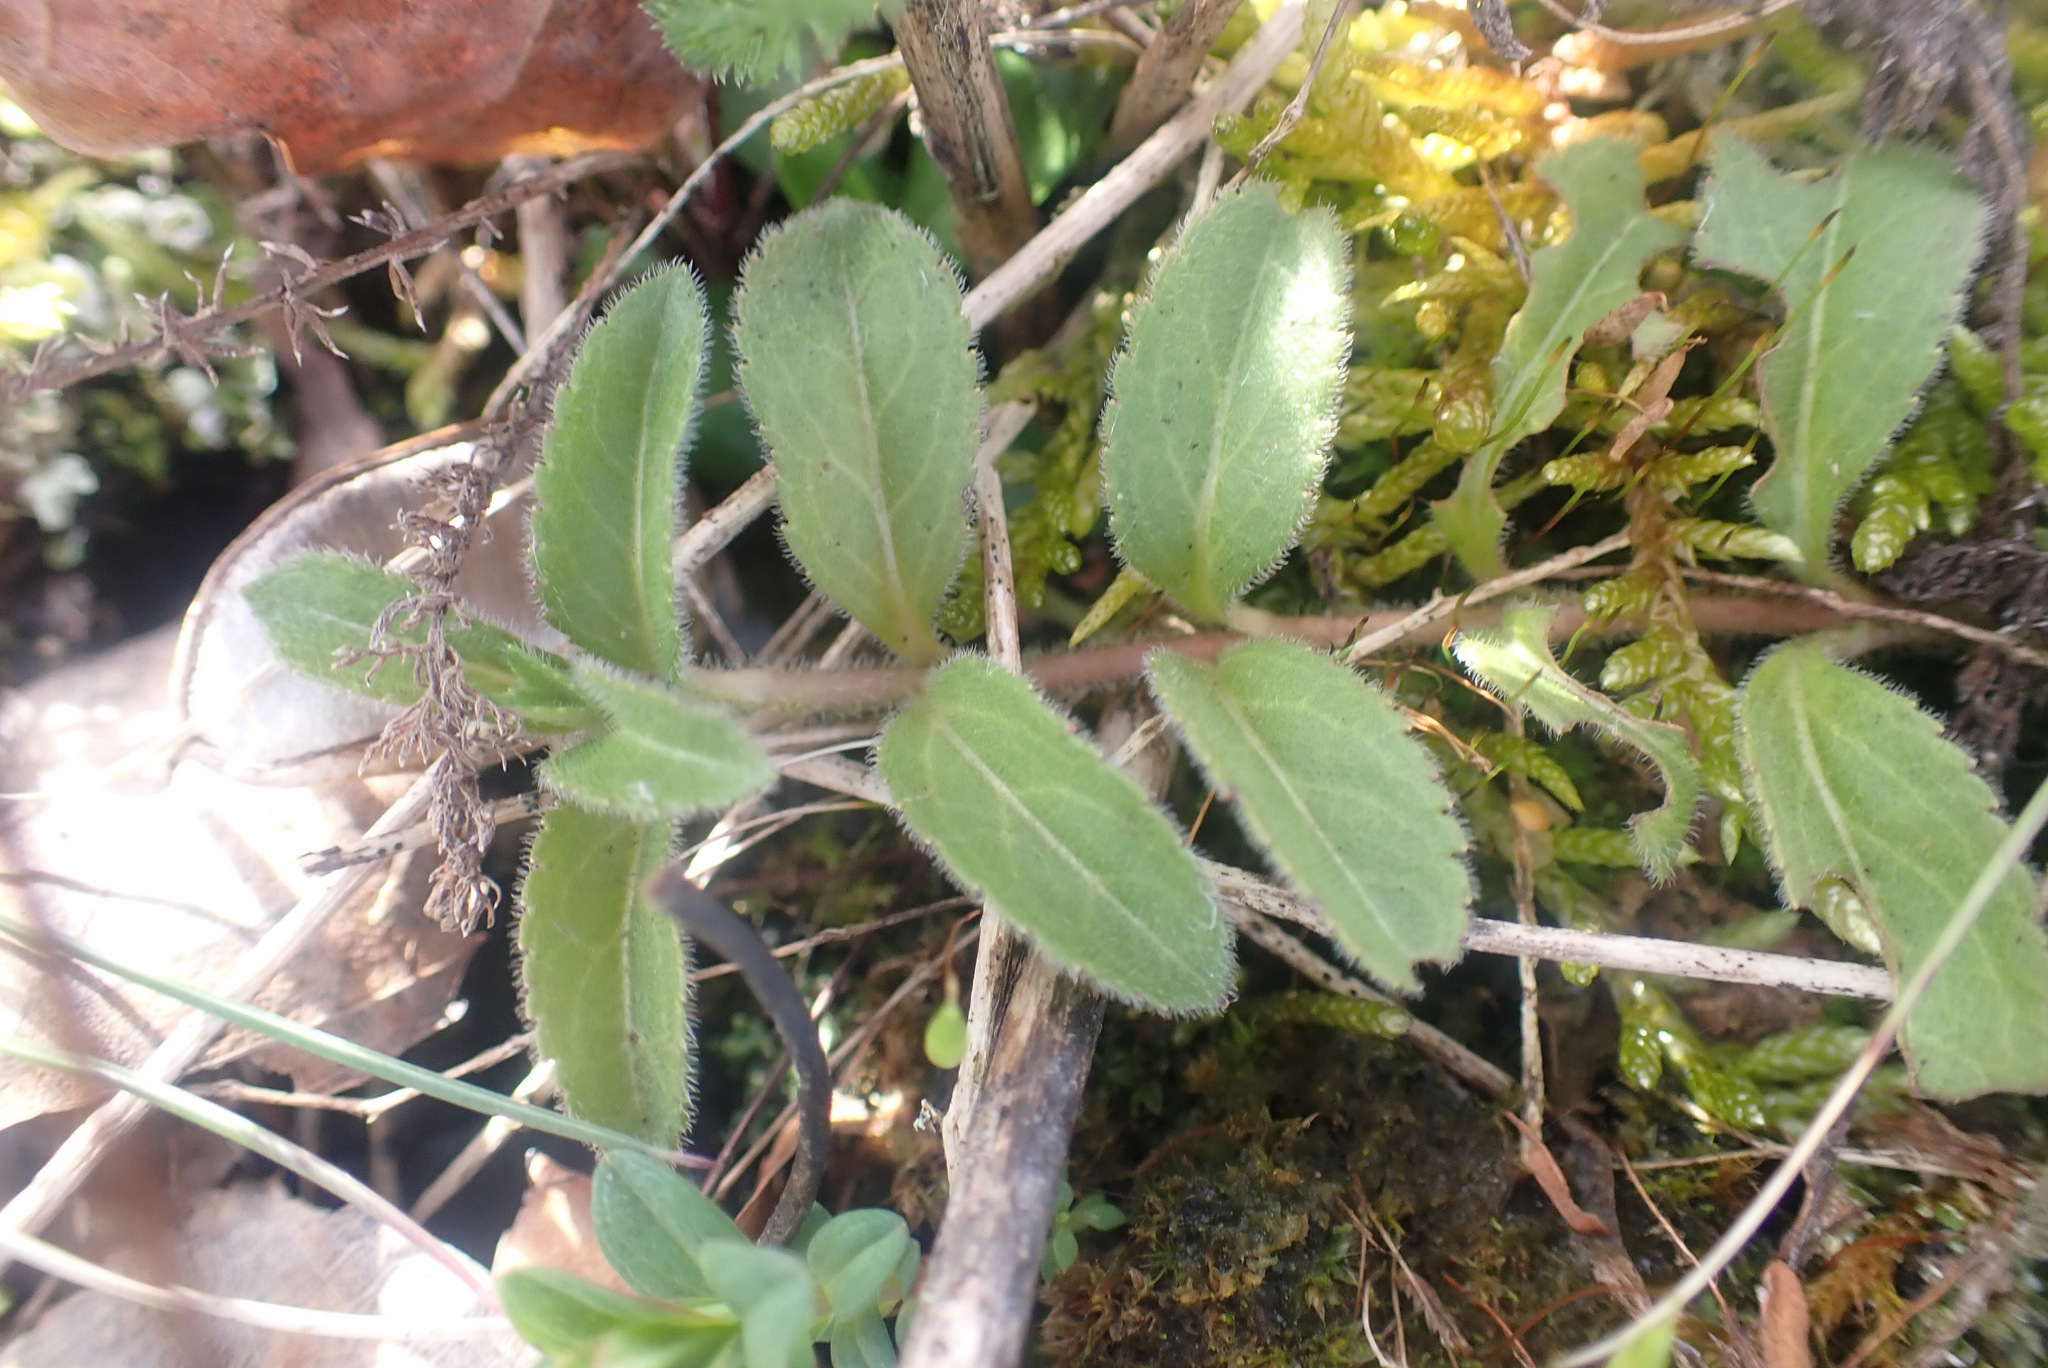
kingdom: Plantae
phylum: Tracheophyta
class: Magnoliopsida
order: Lamiales
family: Plantaginaceae
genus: Veronica
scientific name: Veronica officinalis
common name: Common speedwell
